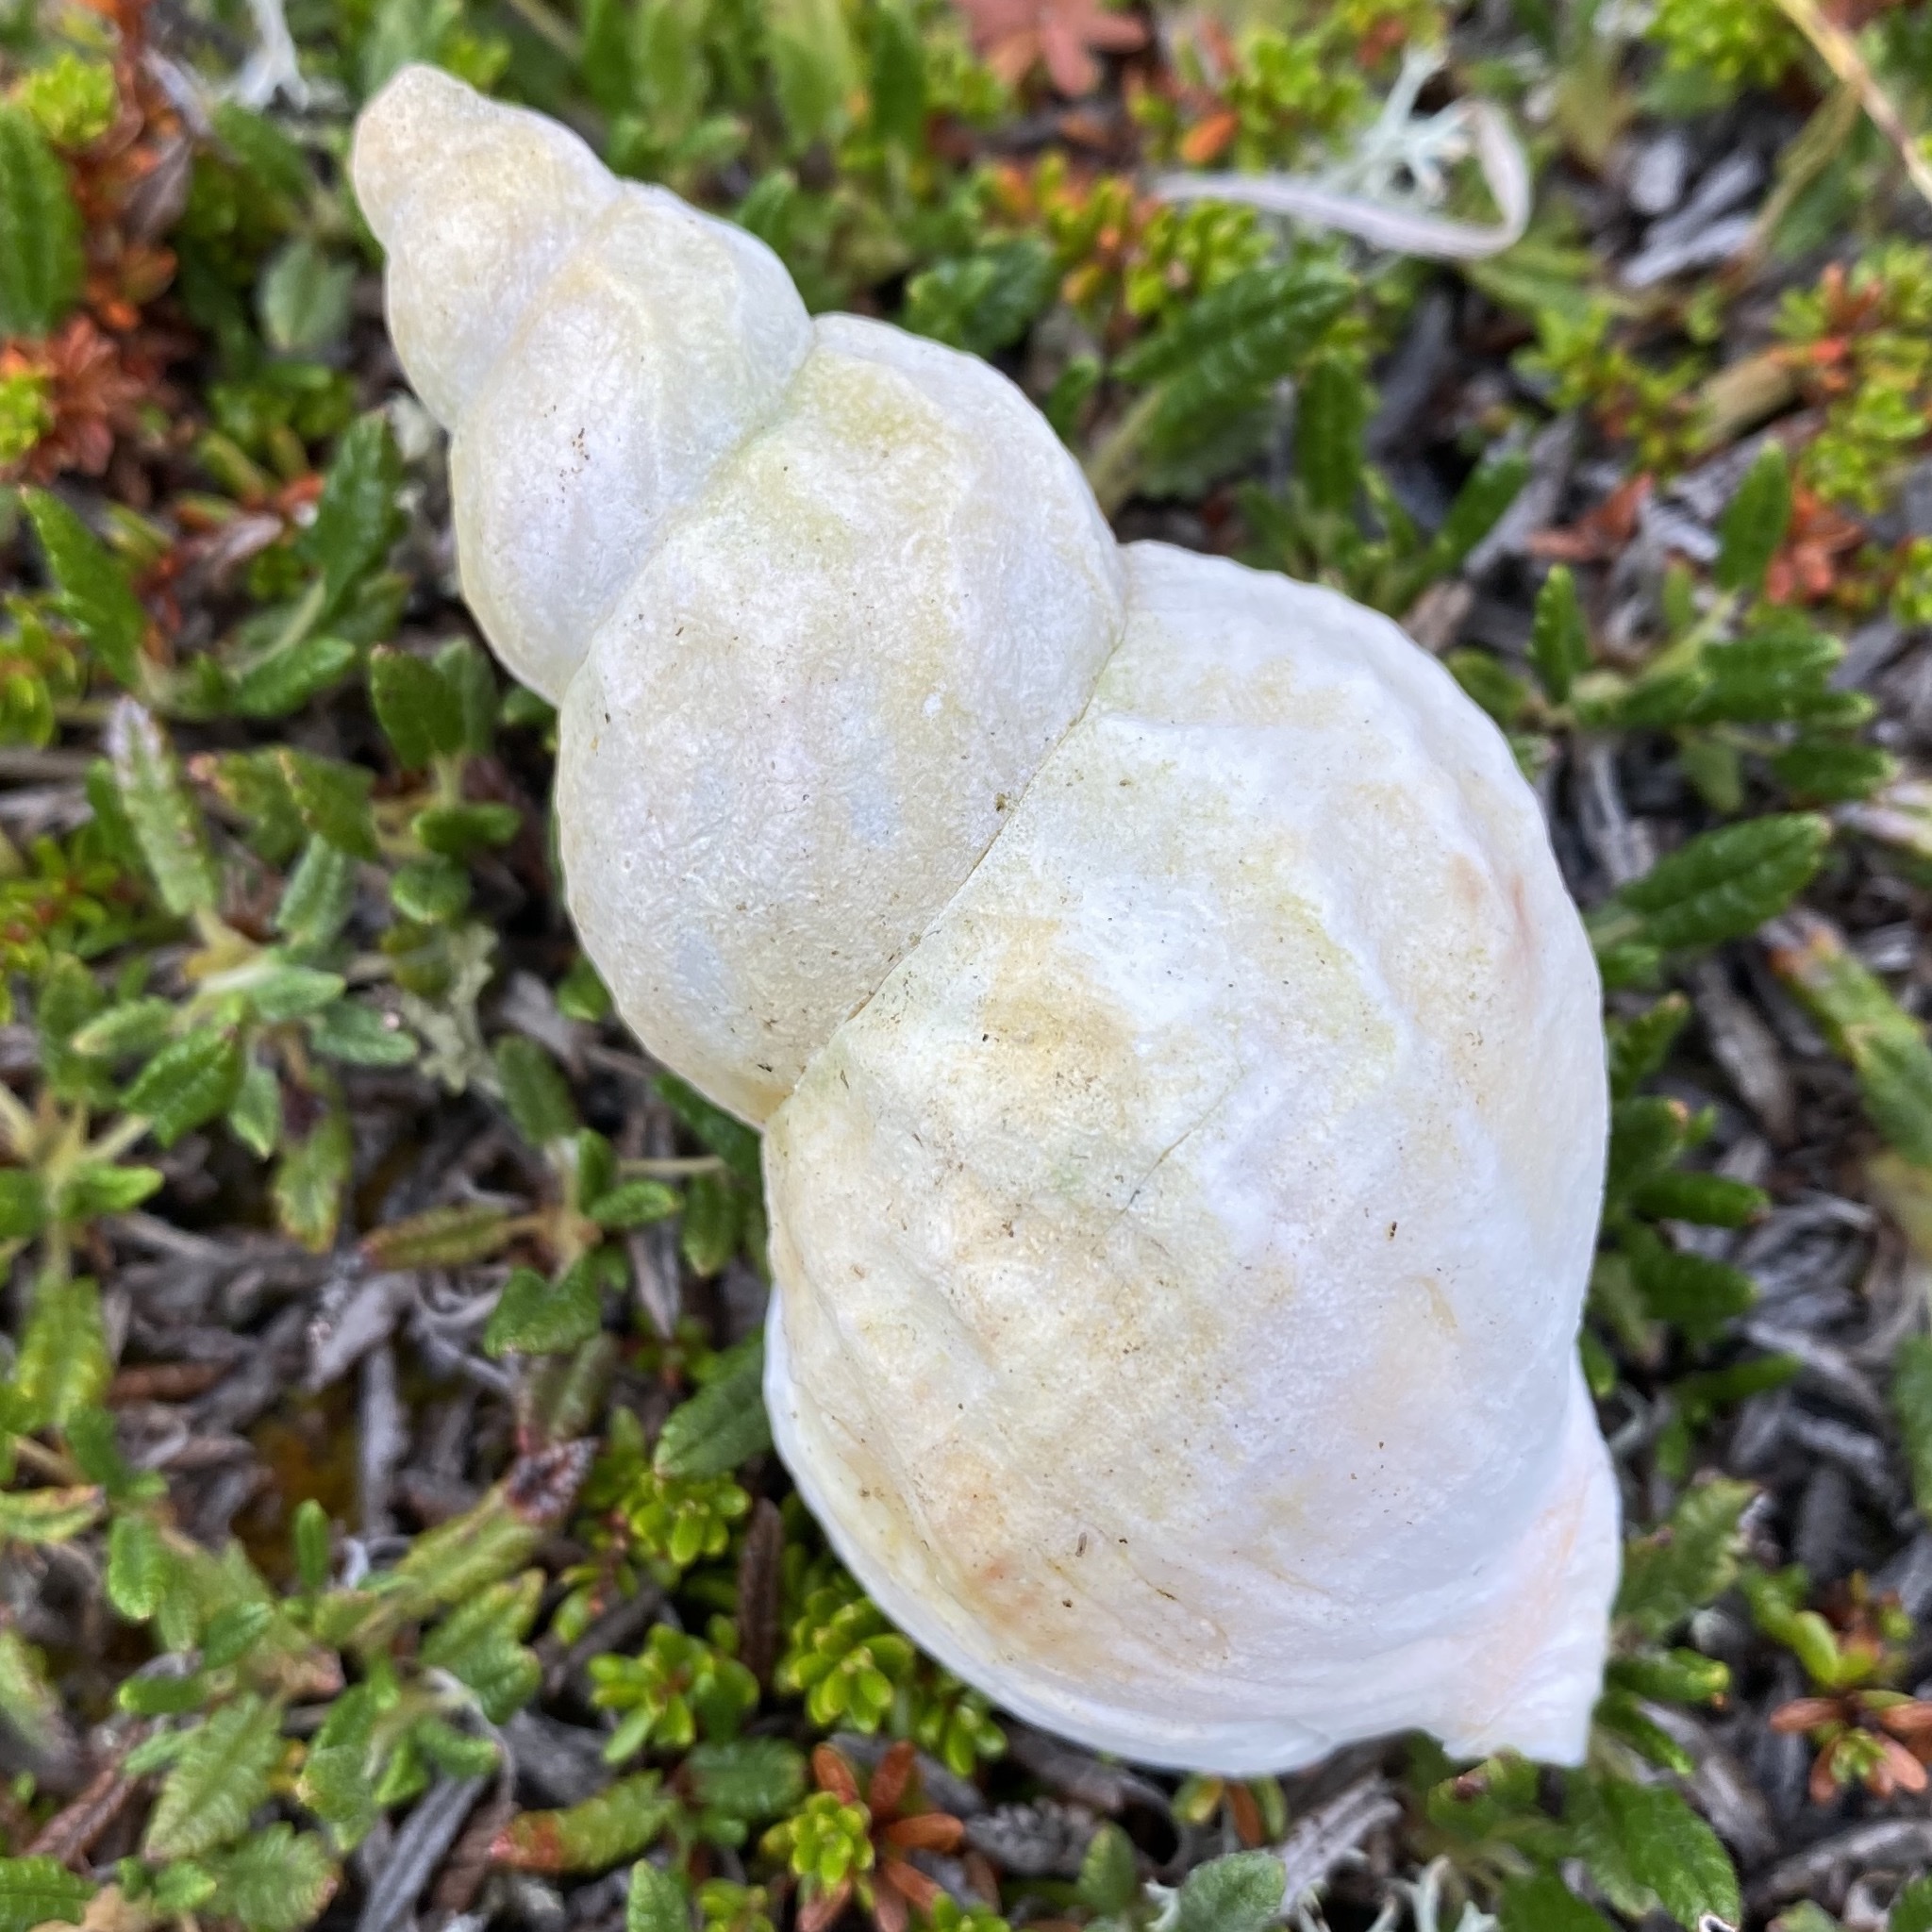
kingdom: Animalia
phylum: Mollusca
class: Gastropoda
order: Neogastropoda
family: Buccinidae
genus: Buccinum
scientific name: Buccinum undatum
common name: Common whelk
